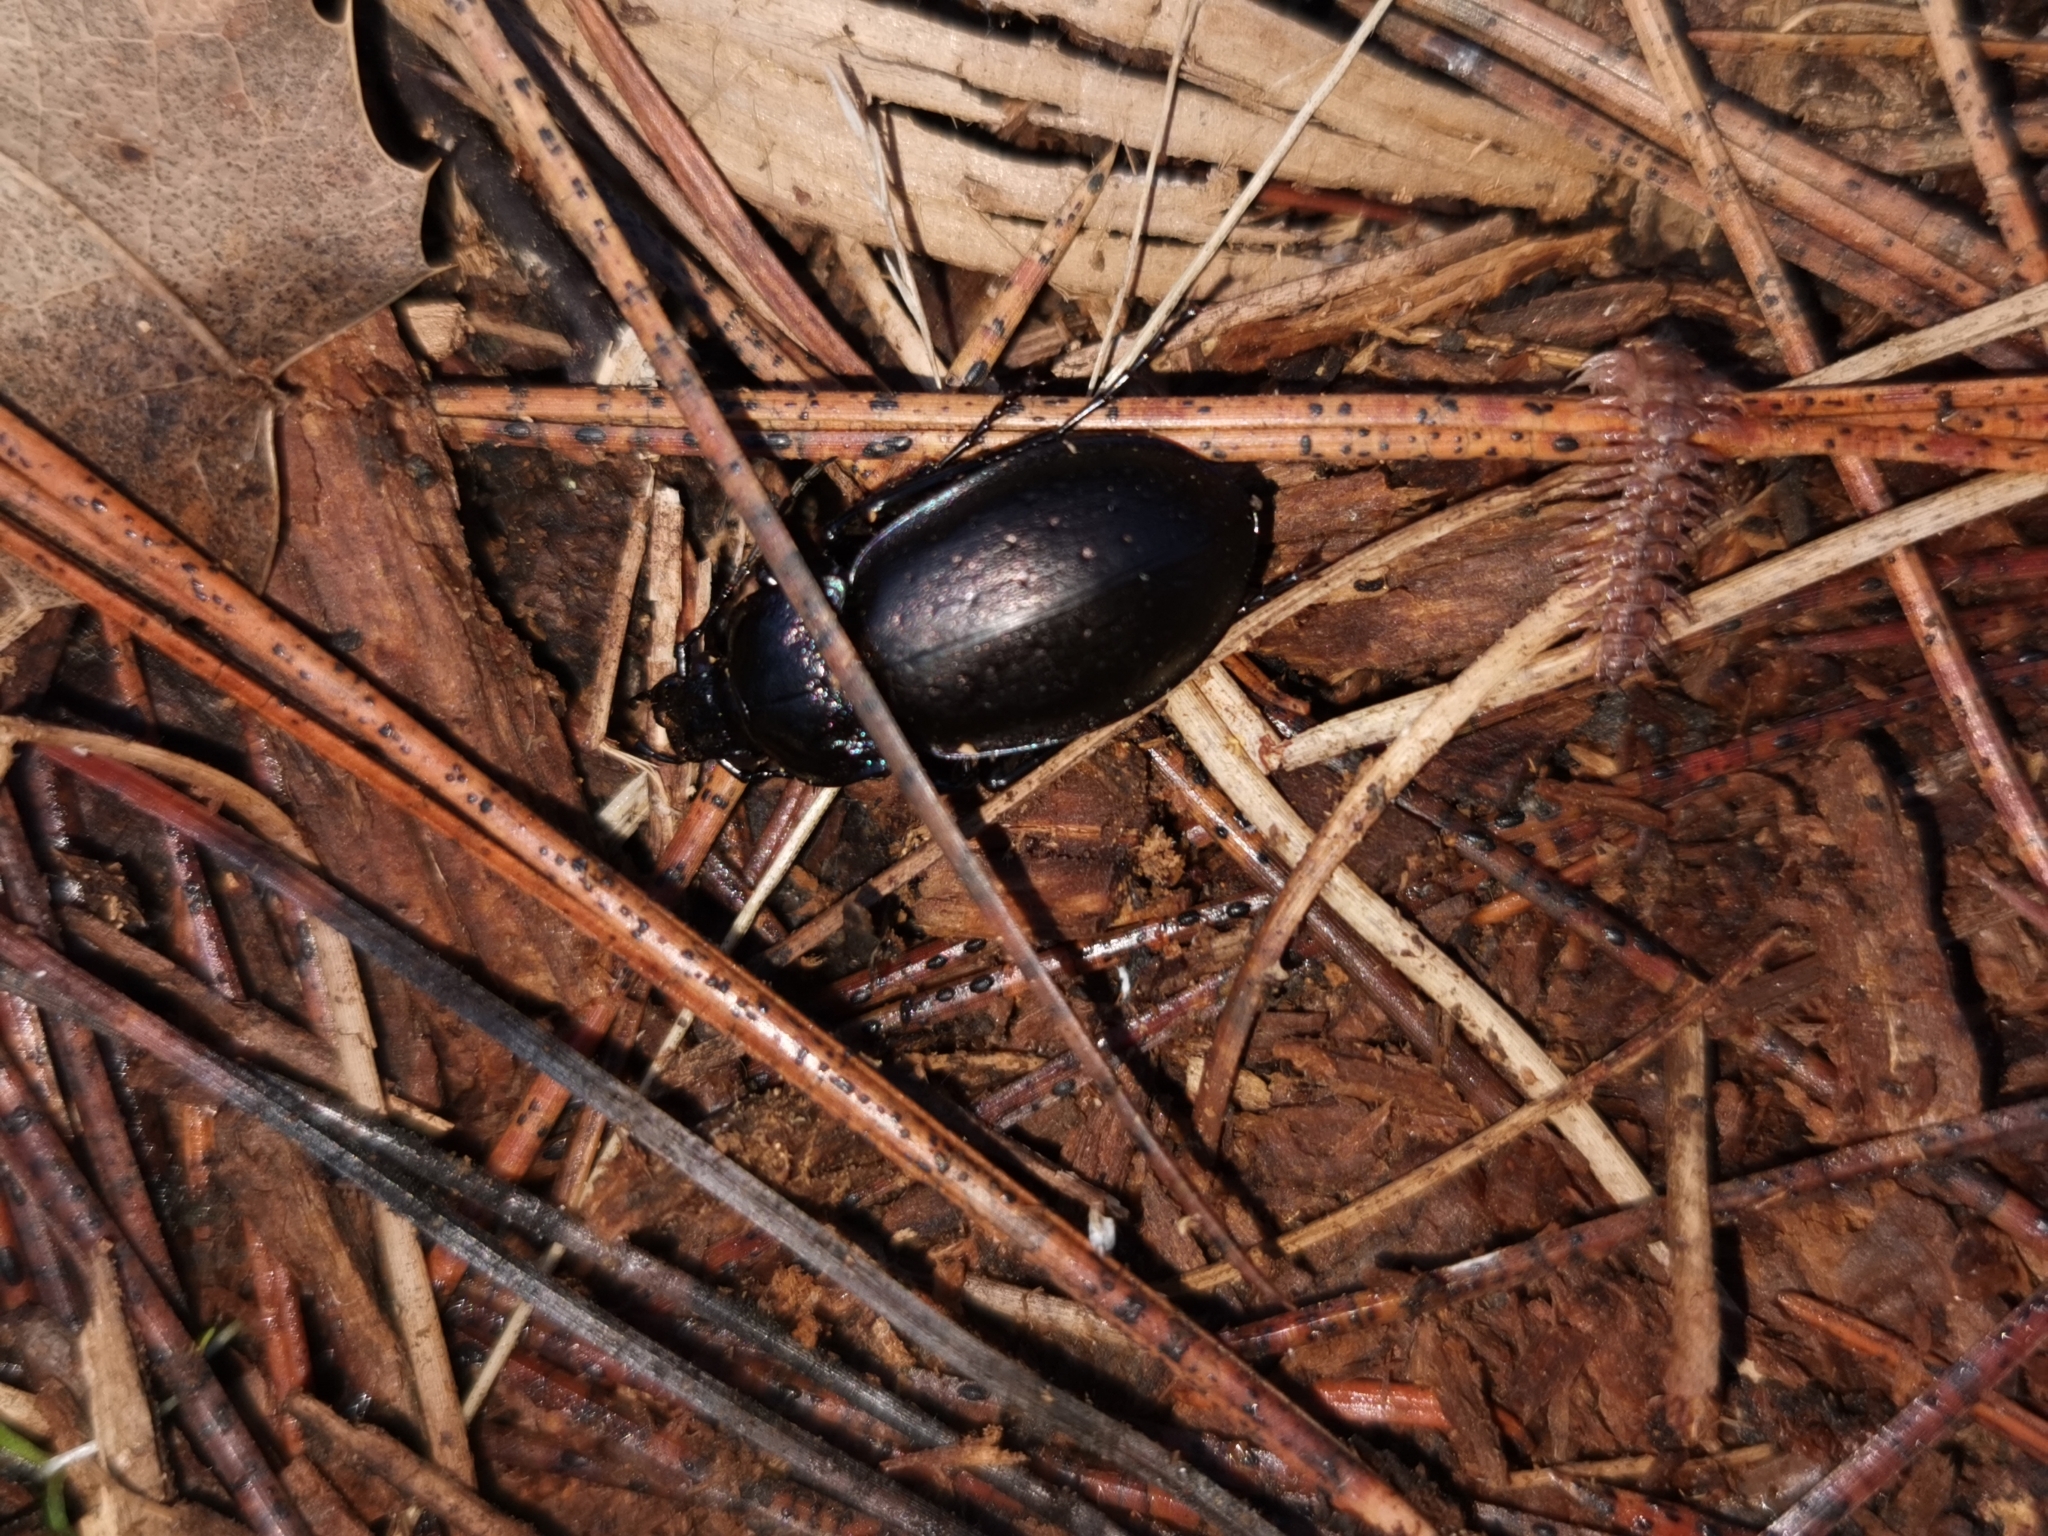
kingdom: Animalia
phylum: Arthropoda
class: Insecta
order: Coleoptera
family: Carabidae
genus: Carabus
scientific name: Carabus nemoralis
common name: European ground beetle
